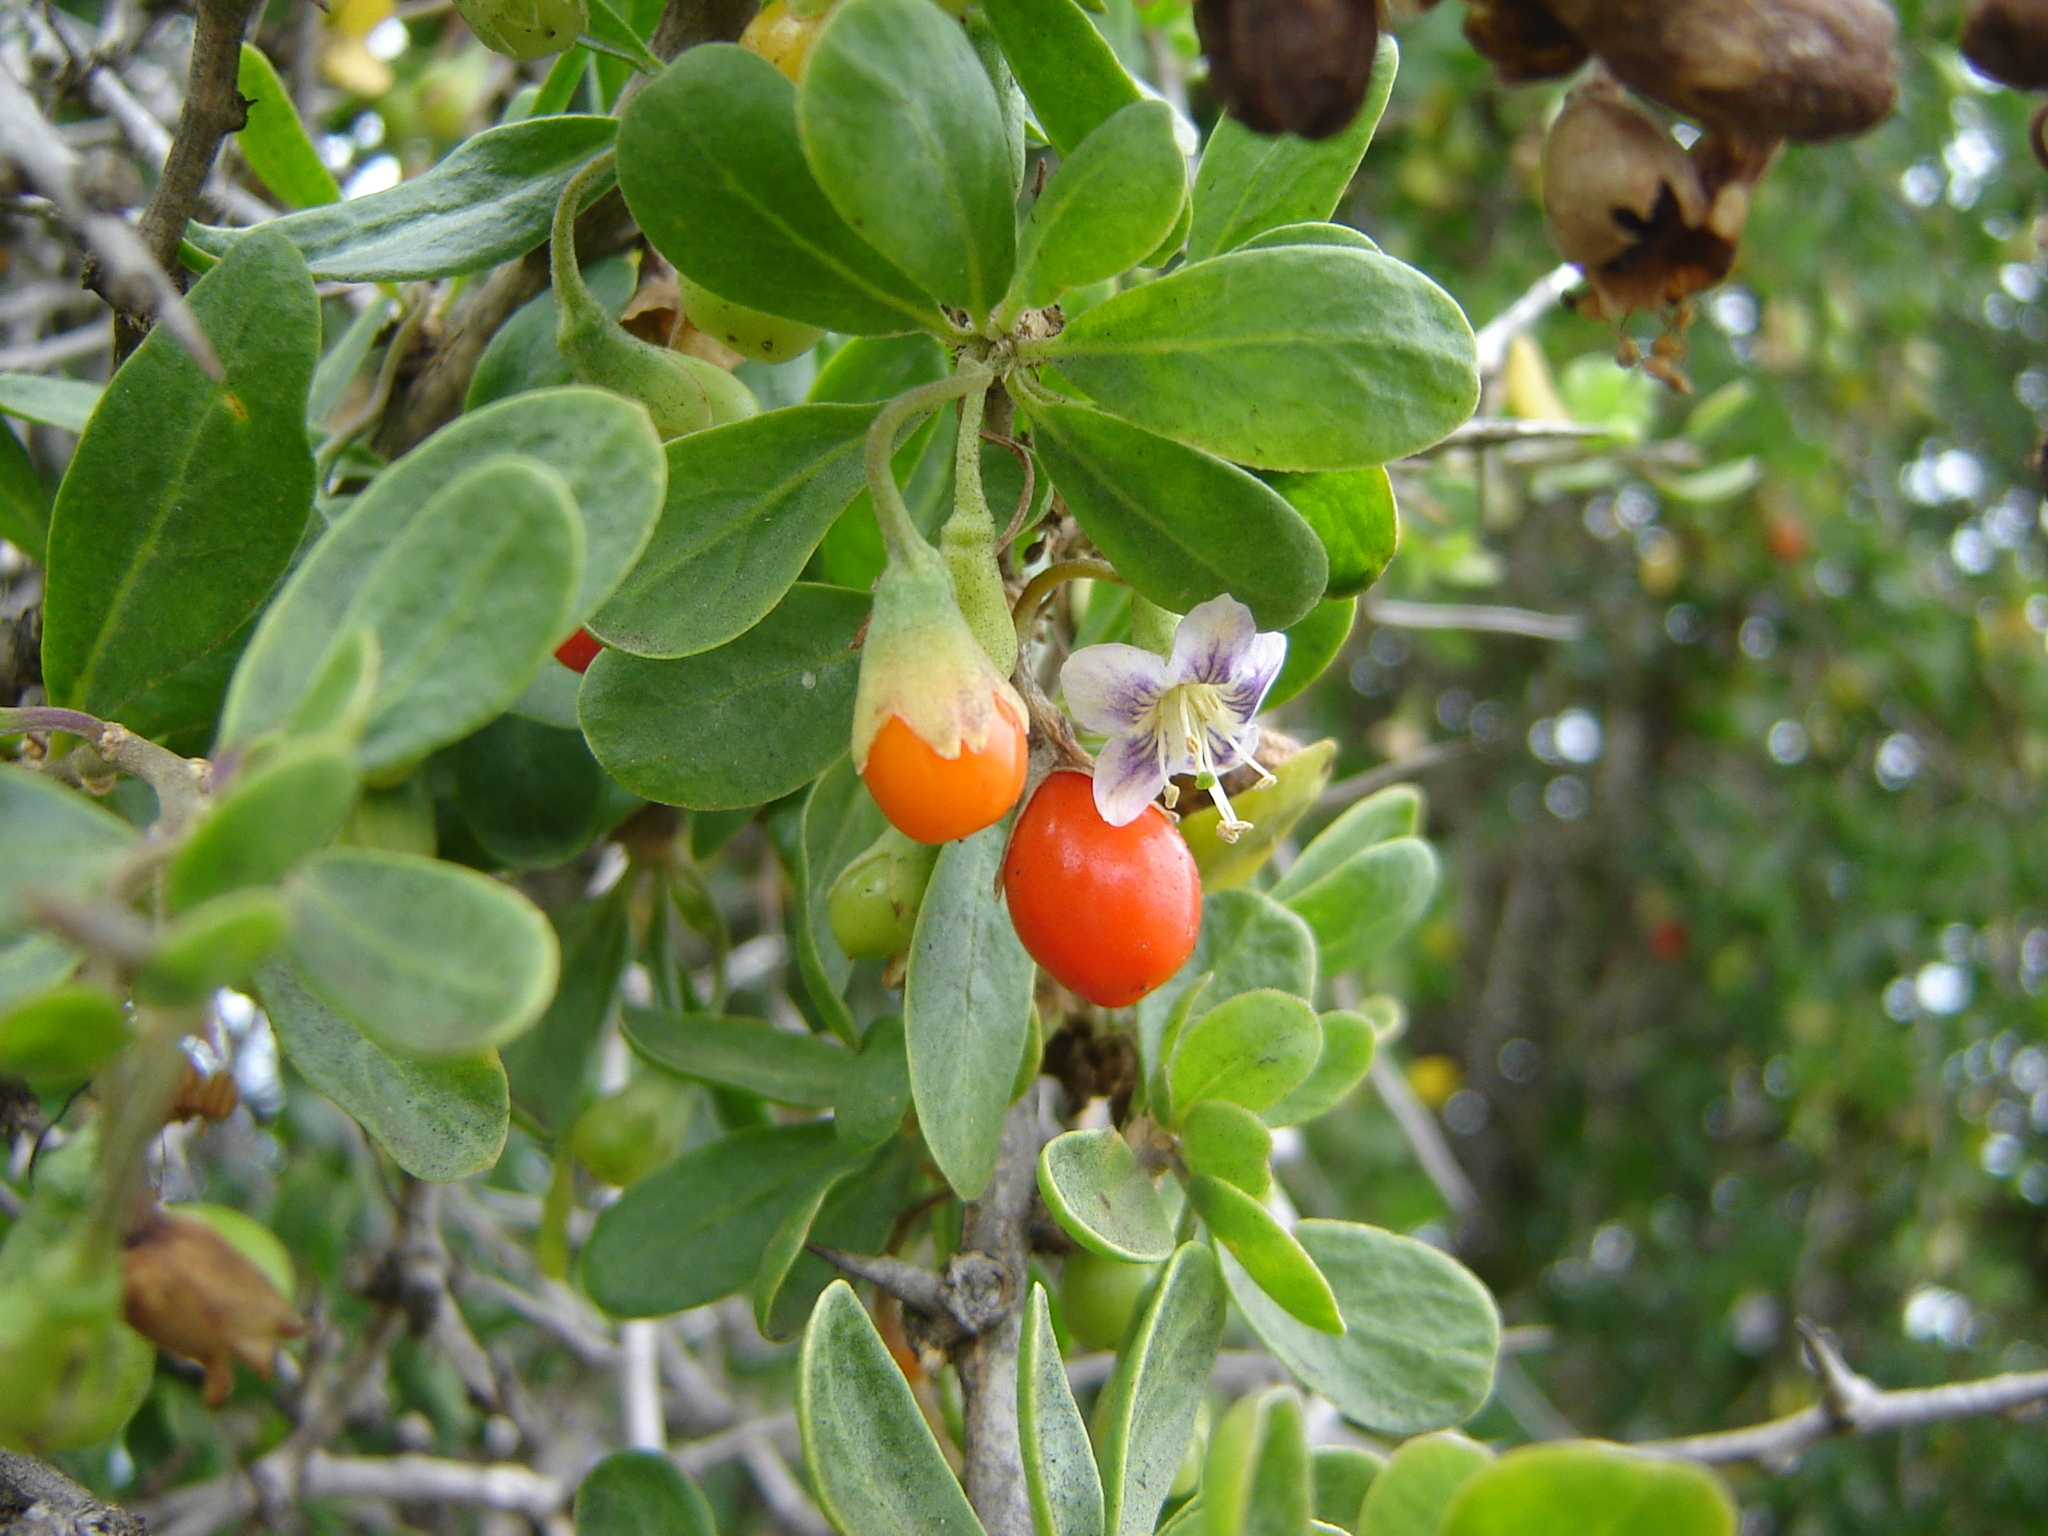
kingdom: Plantae
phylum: Tracheophyta
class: Magnoliopsida
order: Solanales
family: Solanaceae
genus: Lycium
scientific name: Lycium ferocissimum
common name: African boxthorn
